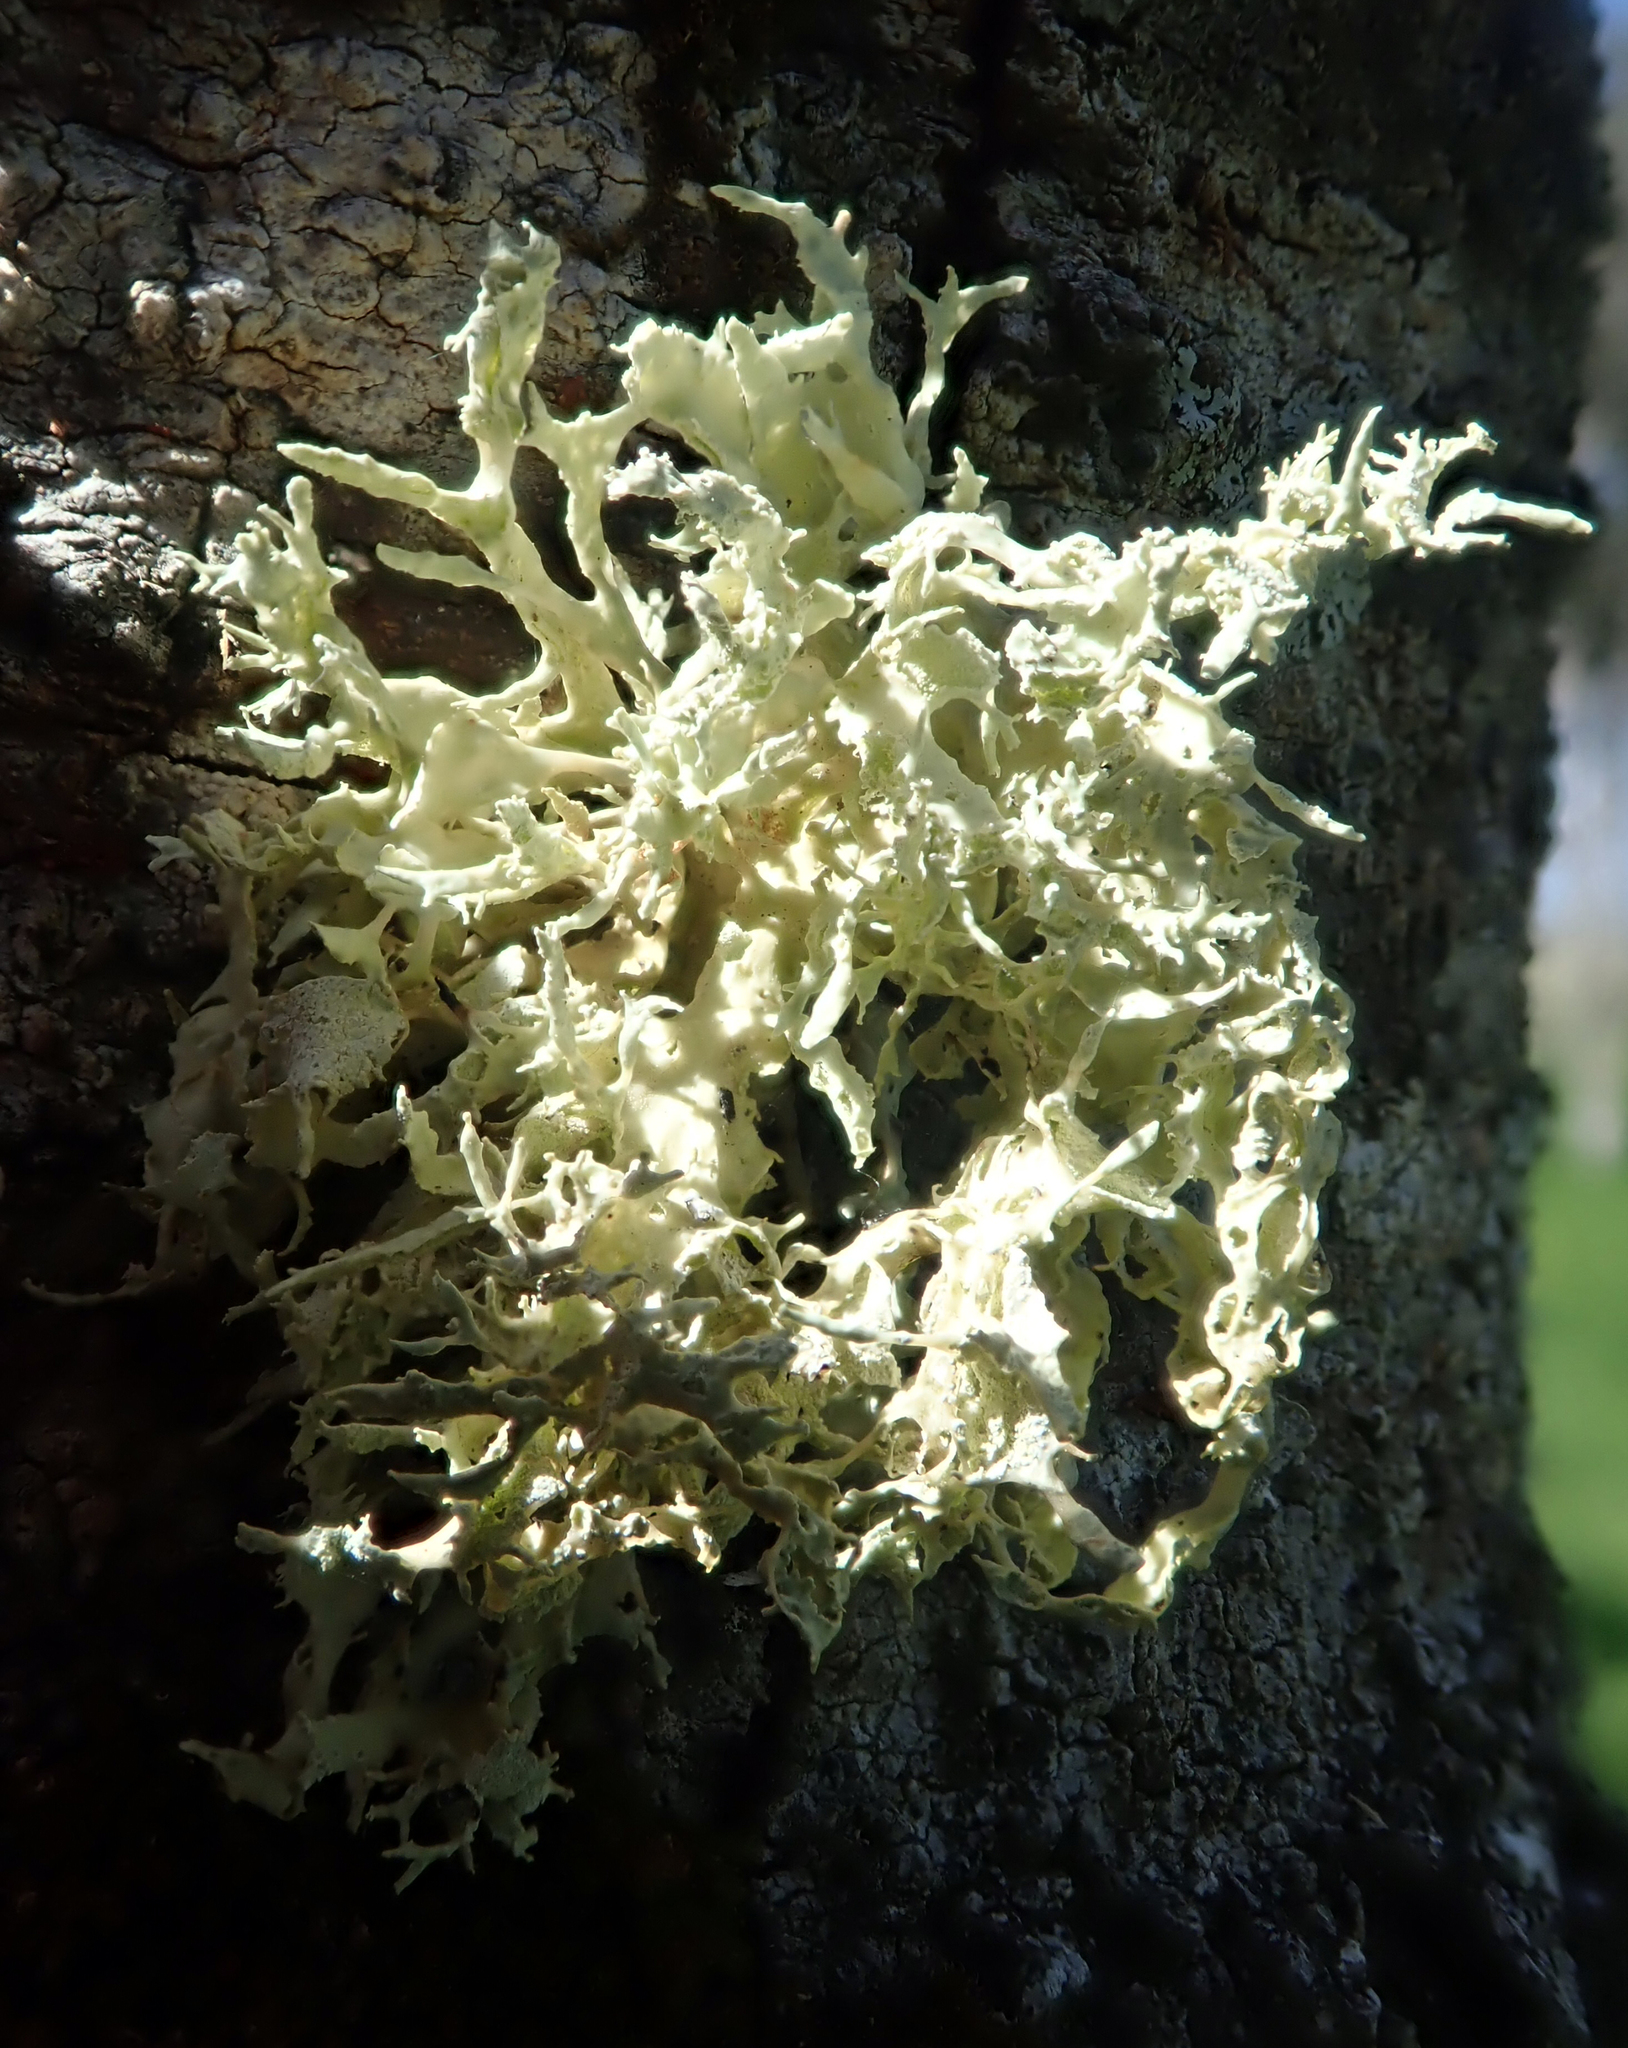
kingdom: Fungi
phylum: Ascomycota
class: Lecanoromycetes
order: Lecanorales
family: Ramalinaceae
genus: Ramalina
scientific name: Ramalina erumpens
